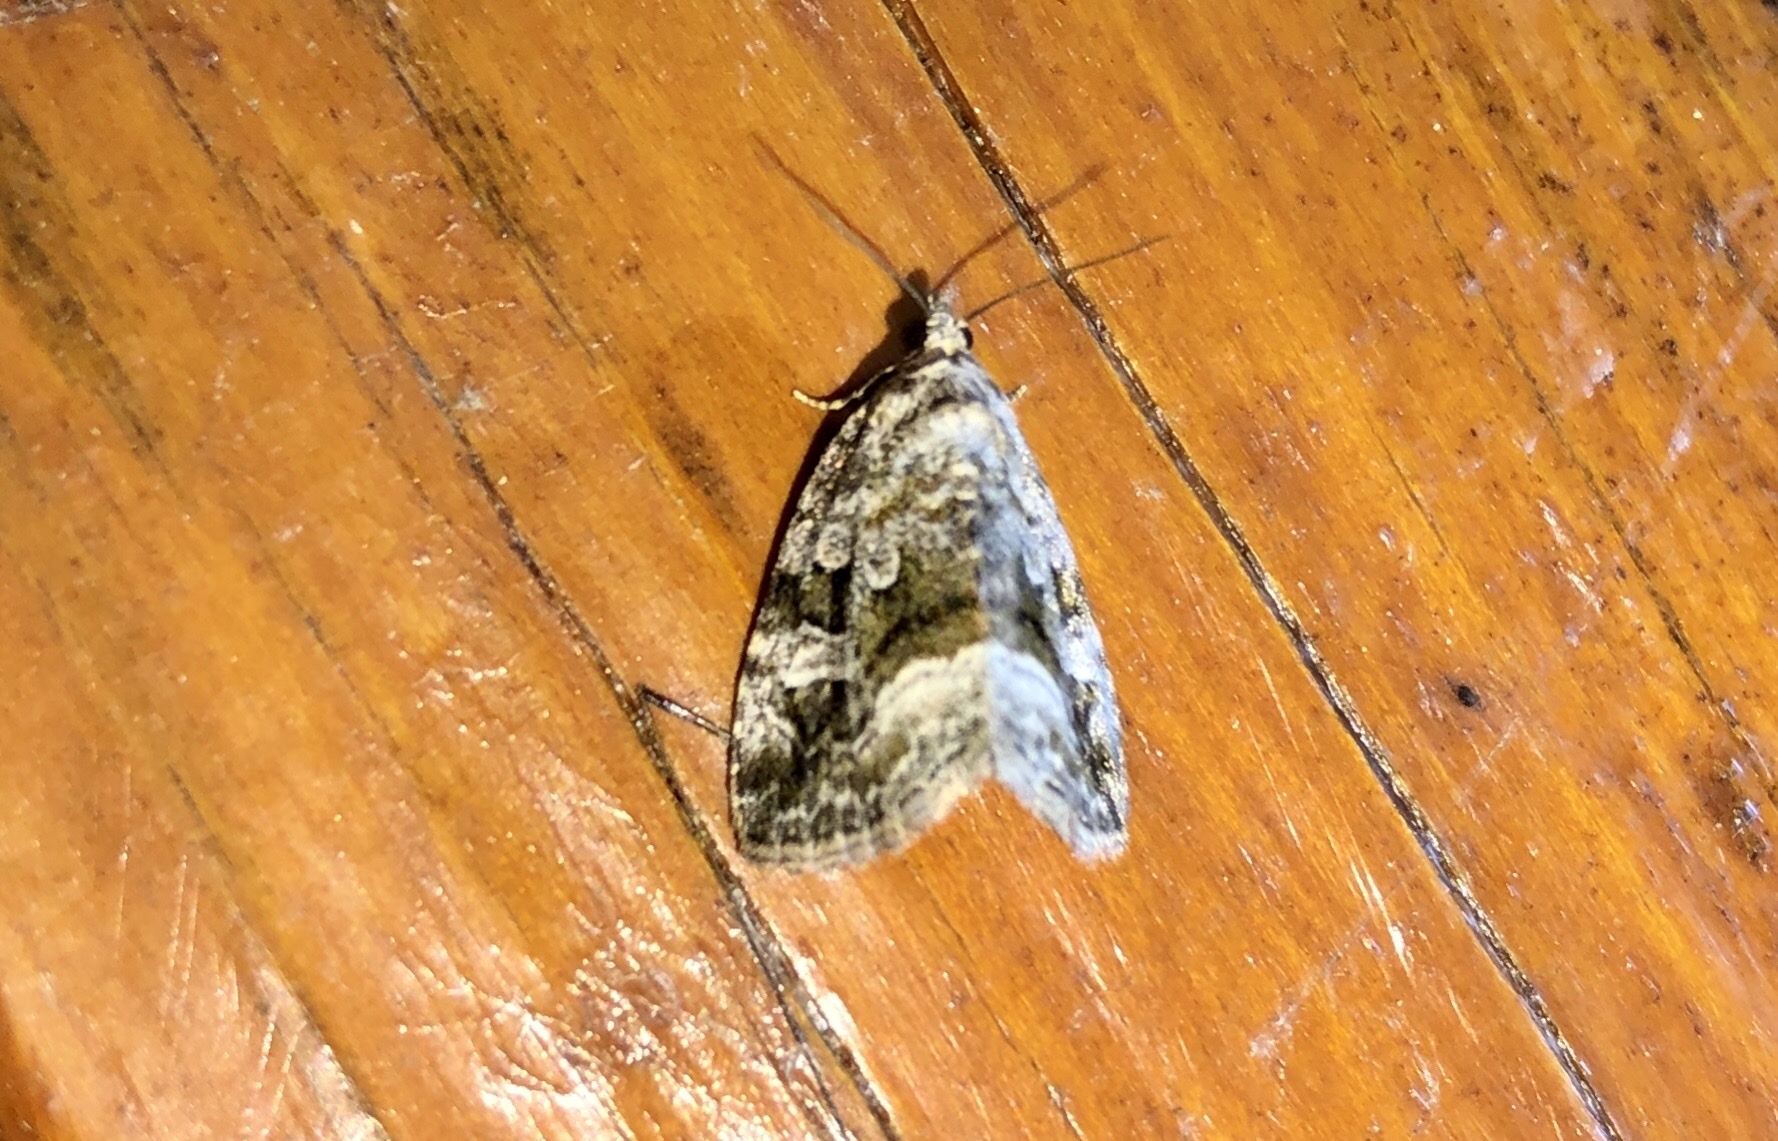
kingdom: Animalia
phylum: Arthropoda
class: Insecta
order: Lepidoptera
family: Noctuidae
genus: Protodeltote
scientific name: Protodeltote muscosula
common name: Large mossy glyph
